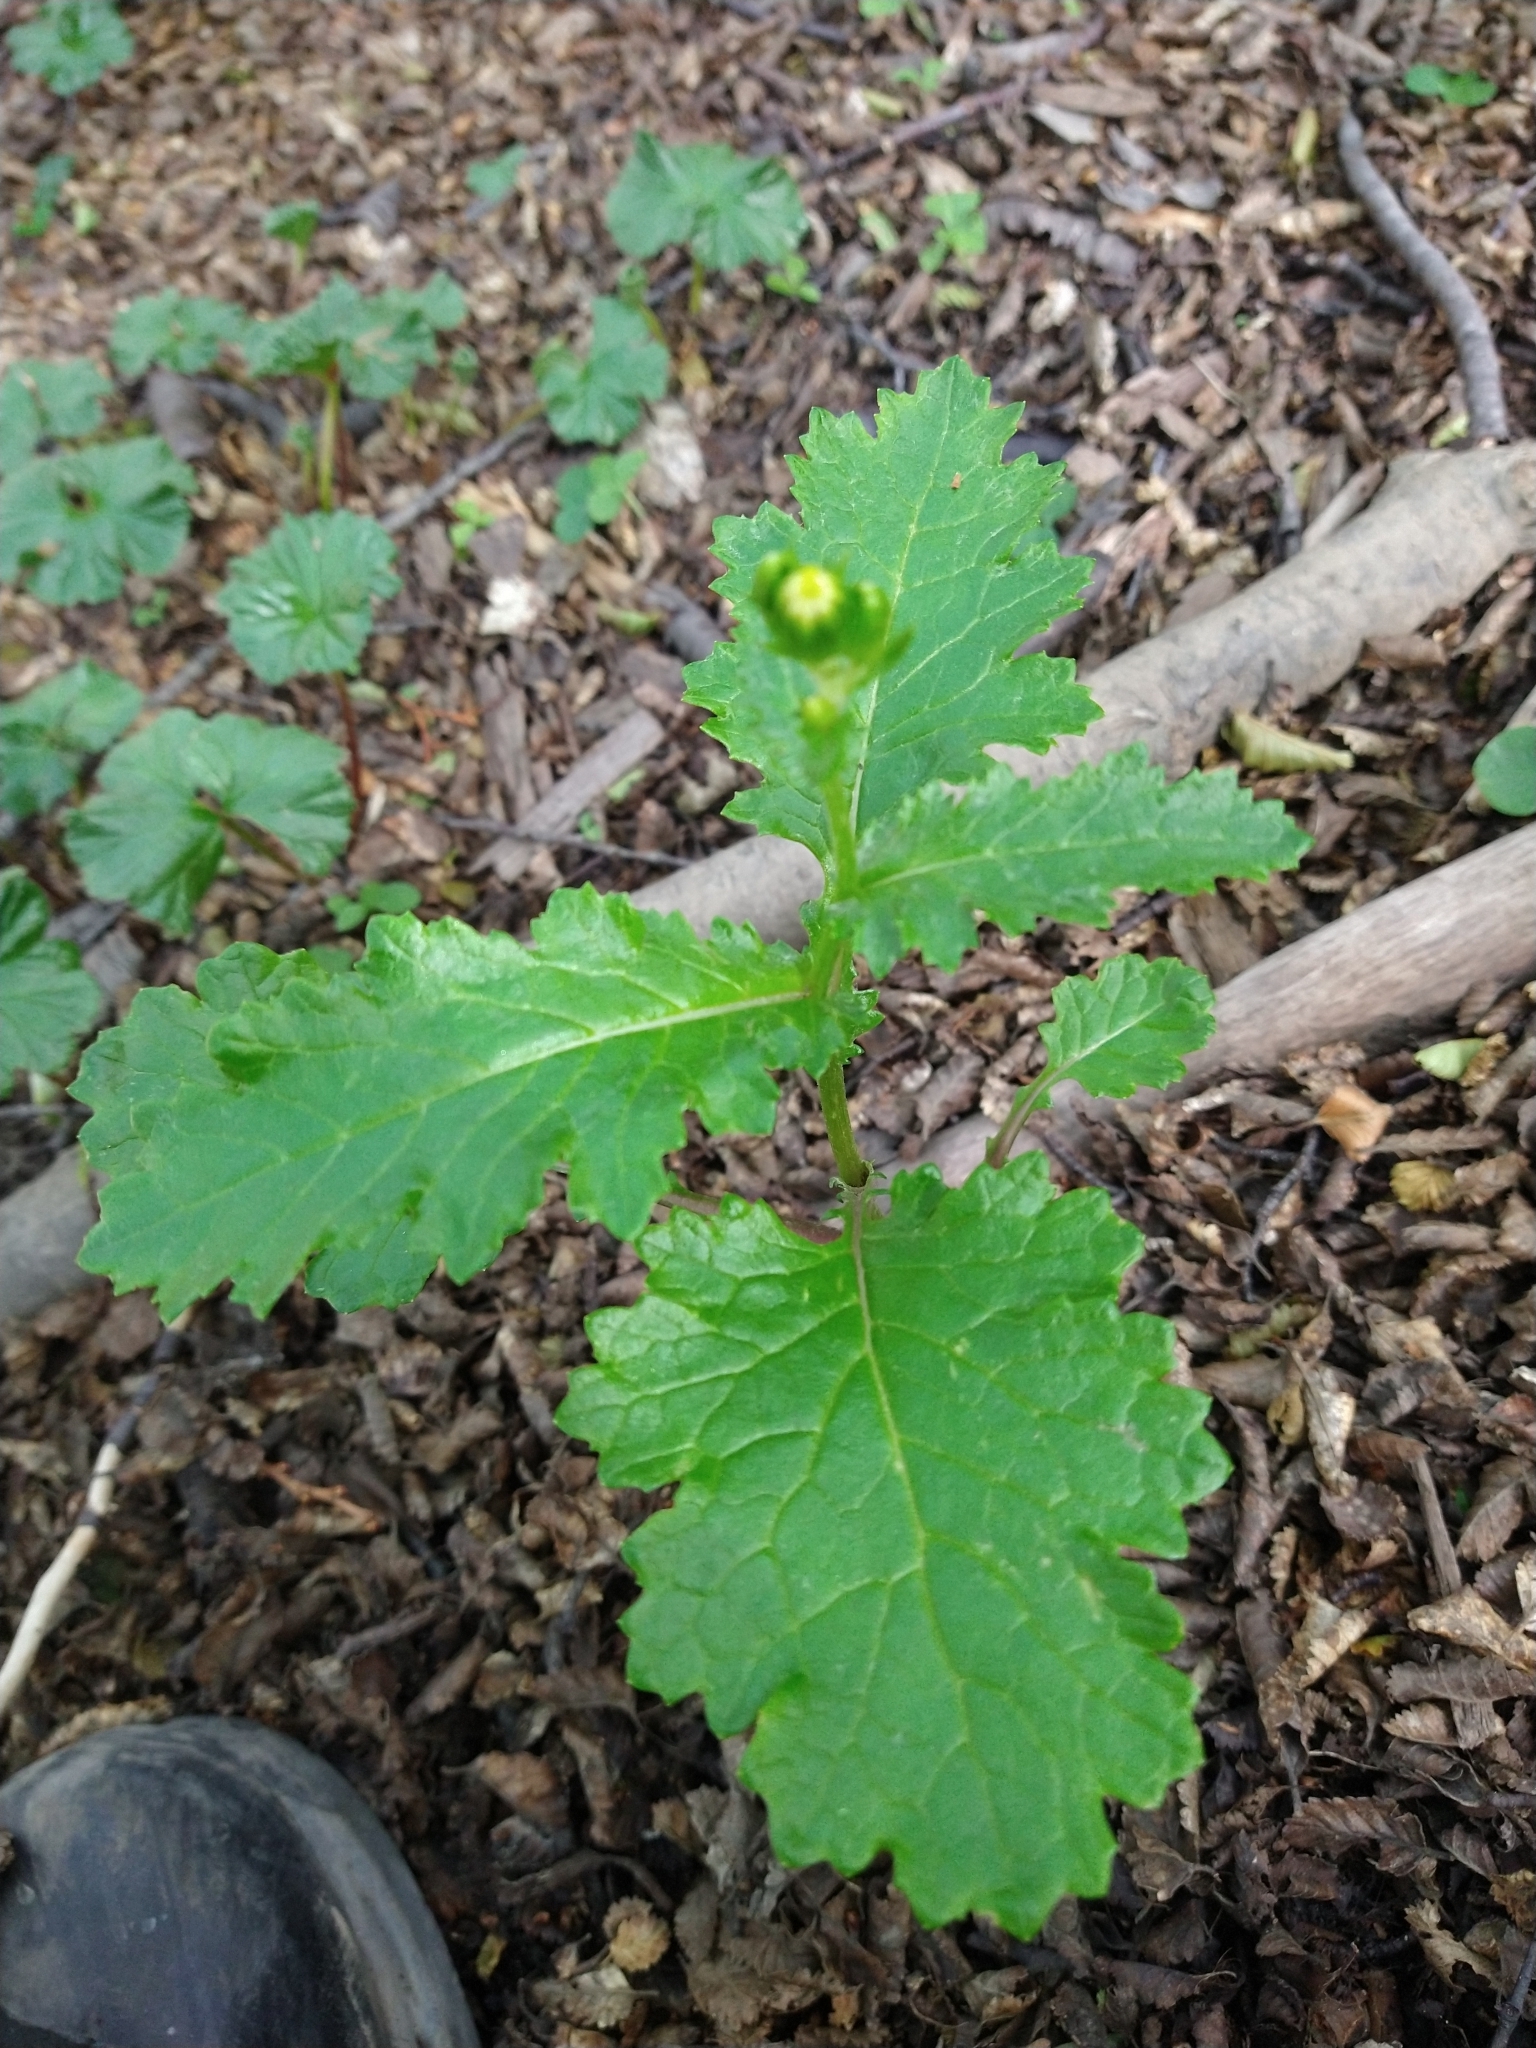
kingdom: Plantae
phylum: Tracheophyta
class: Magnoliopsida
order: Asterales
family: Asteraceae
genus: Iocenes
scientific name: Iocenes virens
